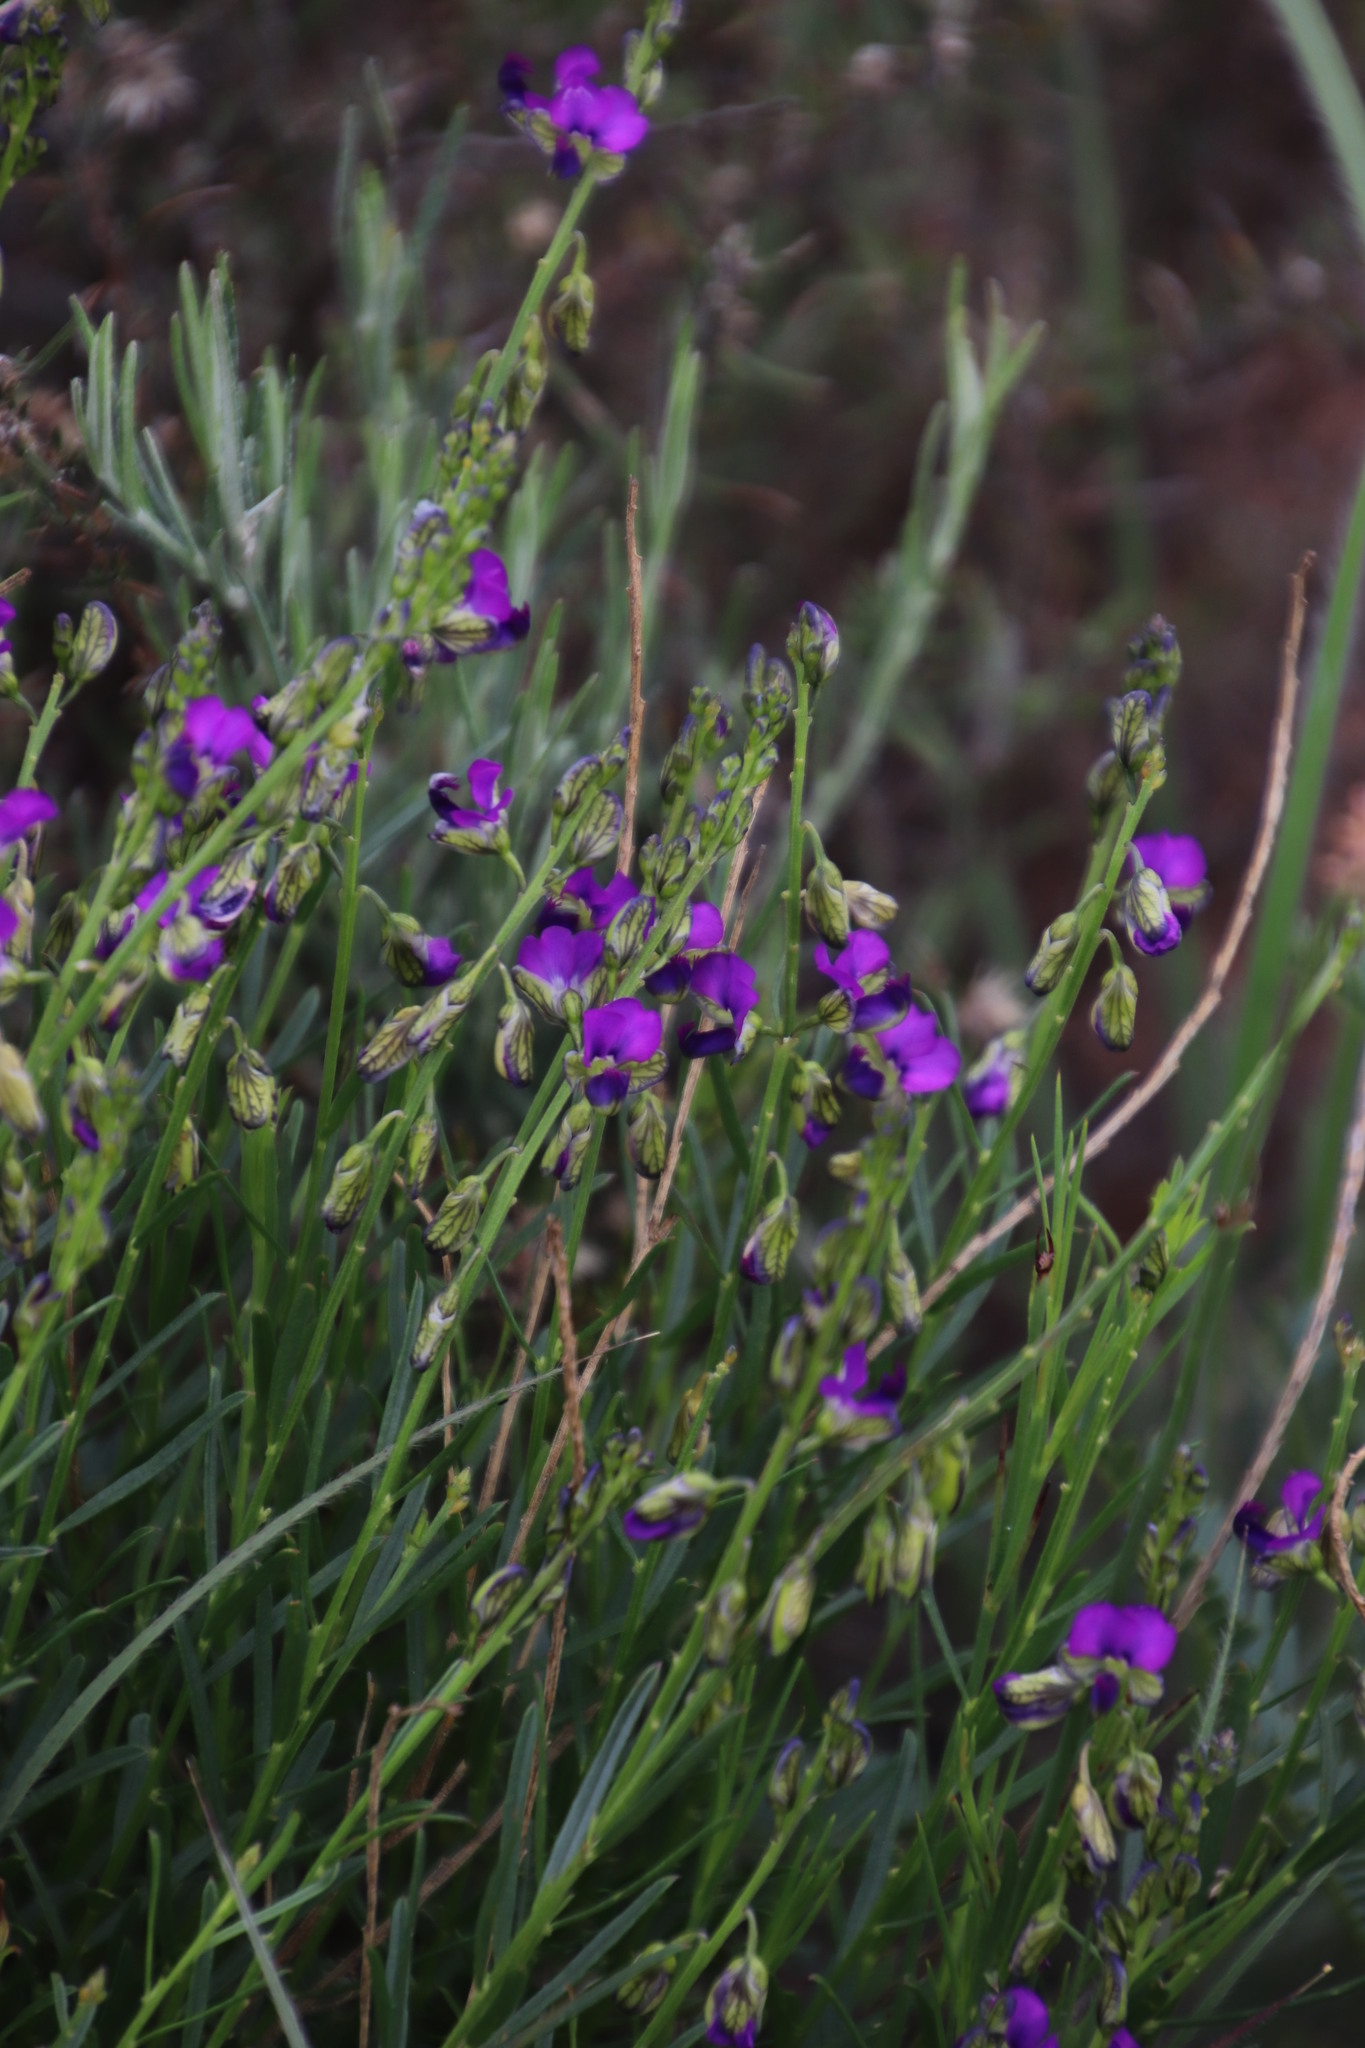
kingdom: Plantae
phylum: Tracheophyta
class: Magnoliopsida
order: Fabales
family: Polygalaceae
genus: Polygala
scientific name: Polygala uncinata
